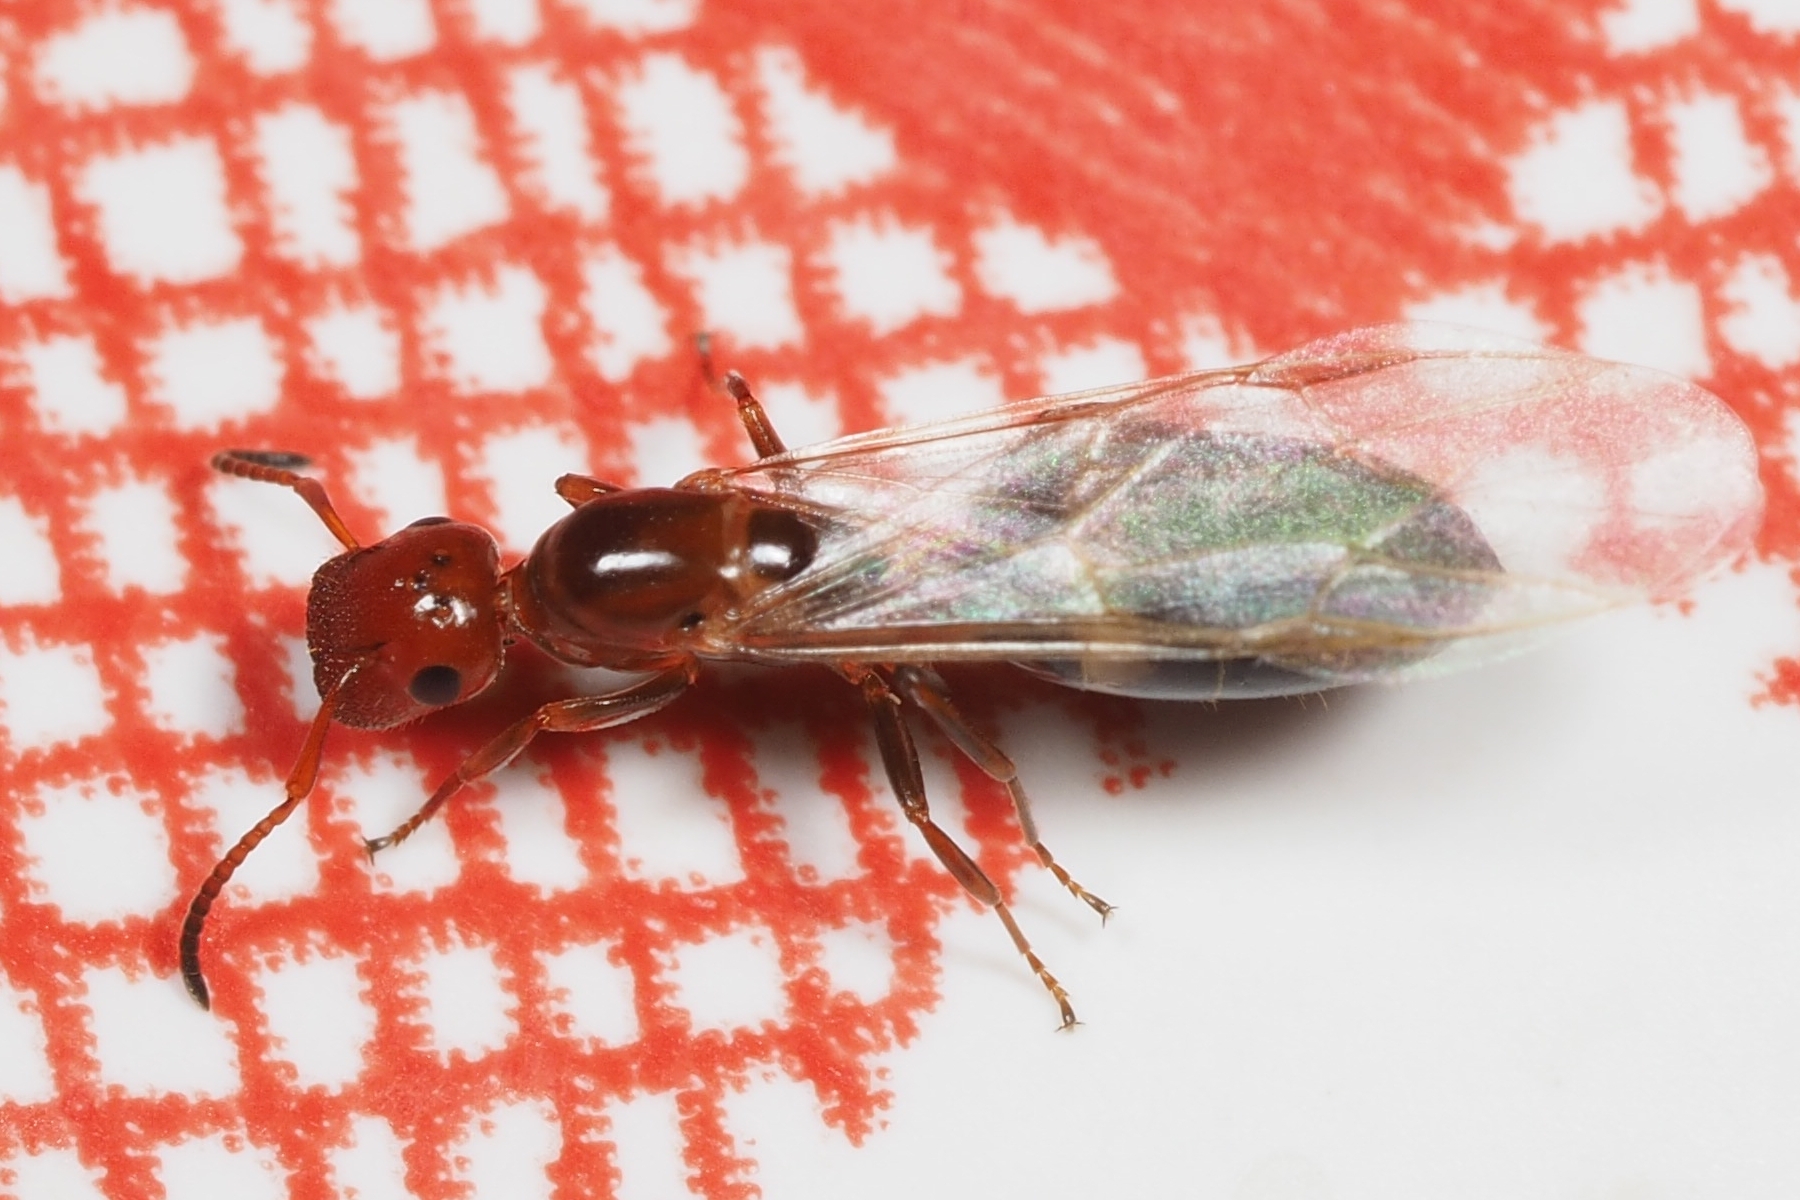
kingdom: Animalia
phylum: Arthropoda
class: Insecta
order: Hymenoptera
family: Formicidae
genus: Colobopsis
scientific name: Colobopsis imitans
